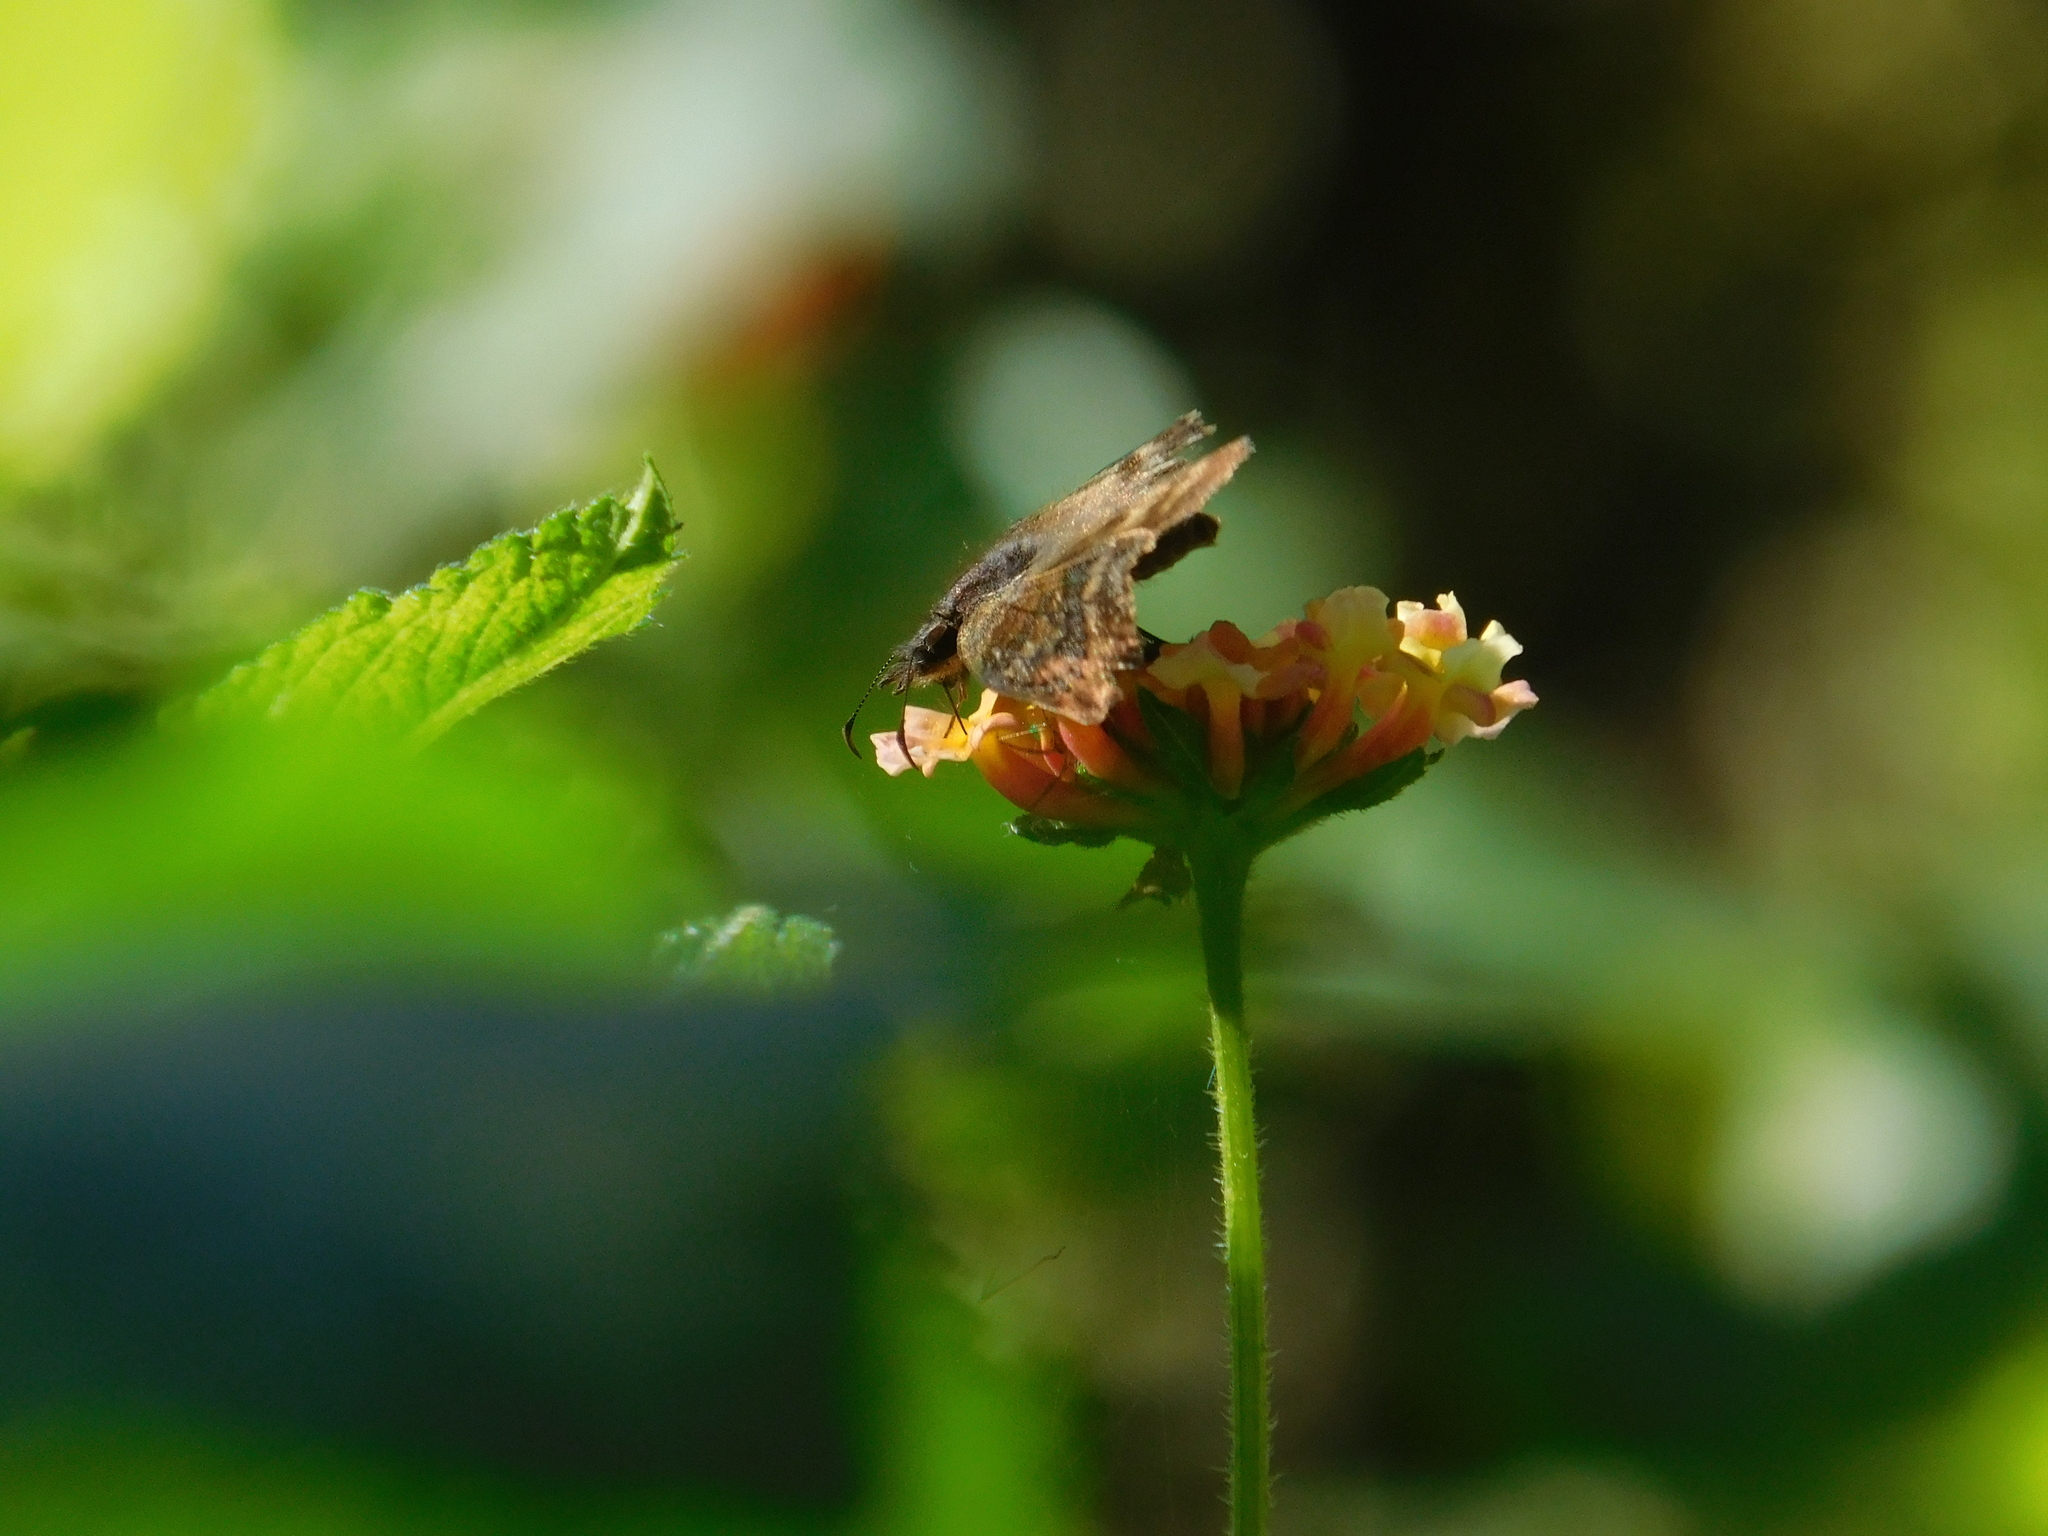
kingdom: Animalia
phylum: Arthropoda
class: Insecta
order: Lepidoptera
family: Hesperiidae
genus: Theagenes
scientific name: Theagenes dichrous
